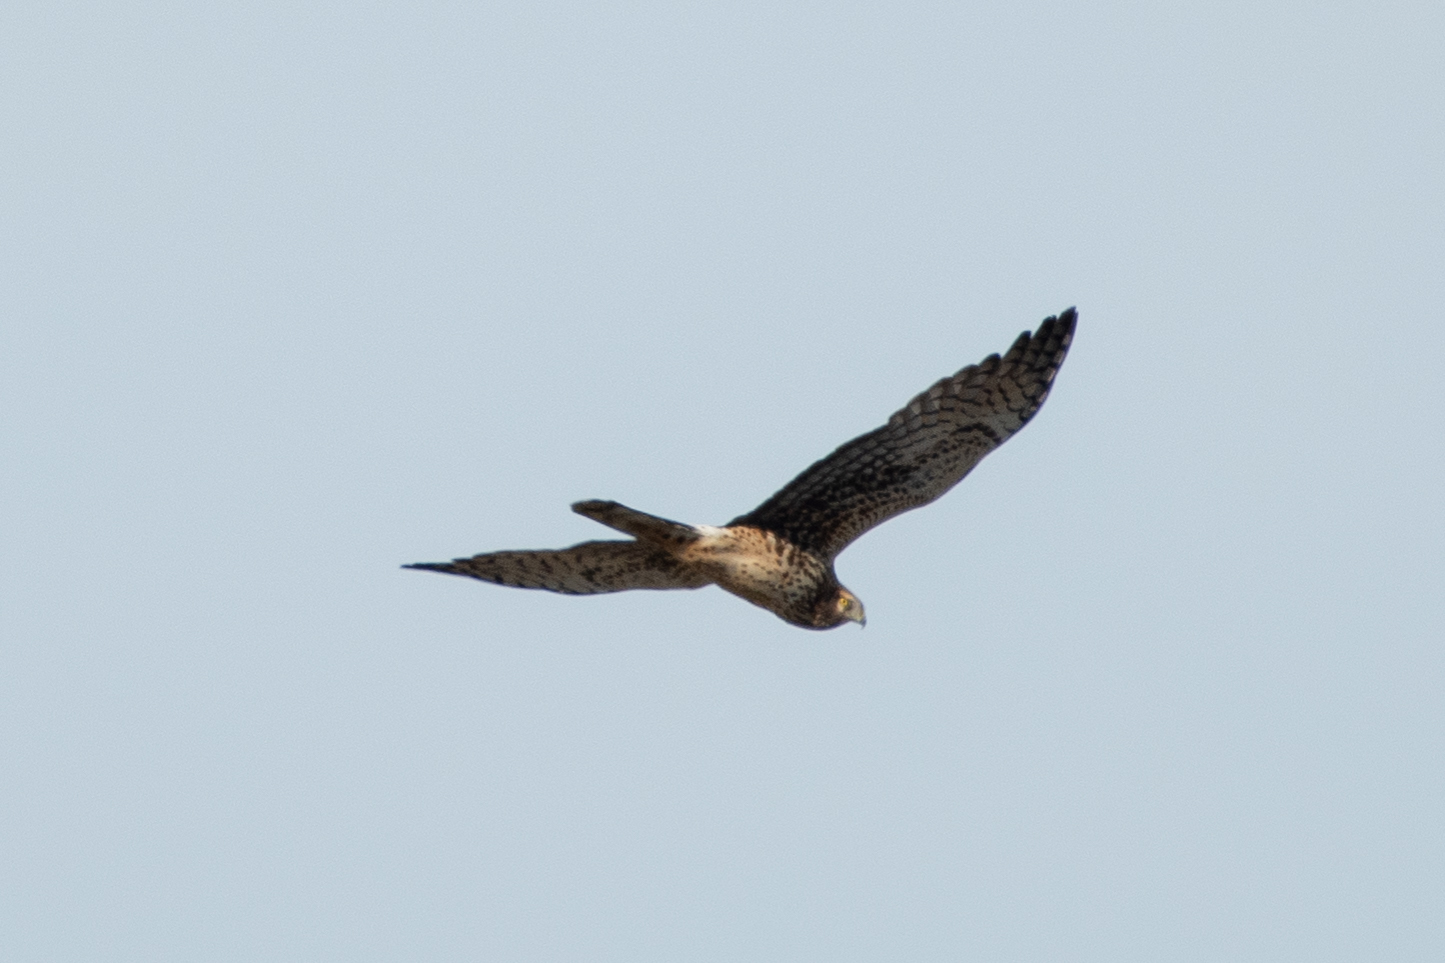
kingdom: Animalia
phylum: Chordata
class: Aves
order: Accipitriformes
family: Accipitridae
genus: Circus
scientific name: Circus cyaneus
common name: Hen harrier
